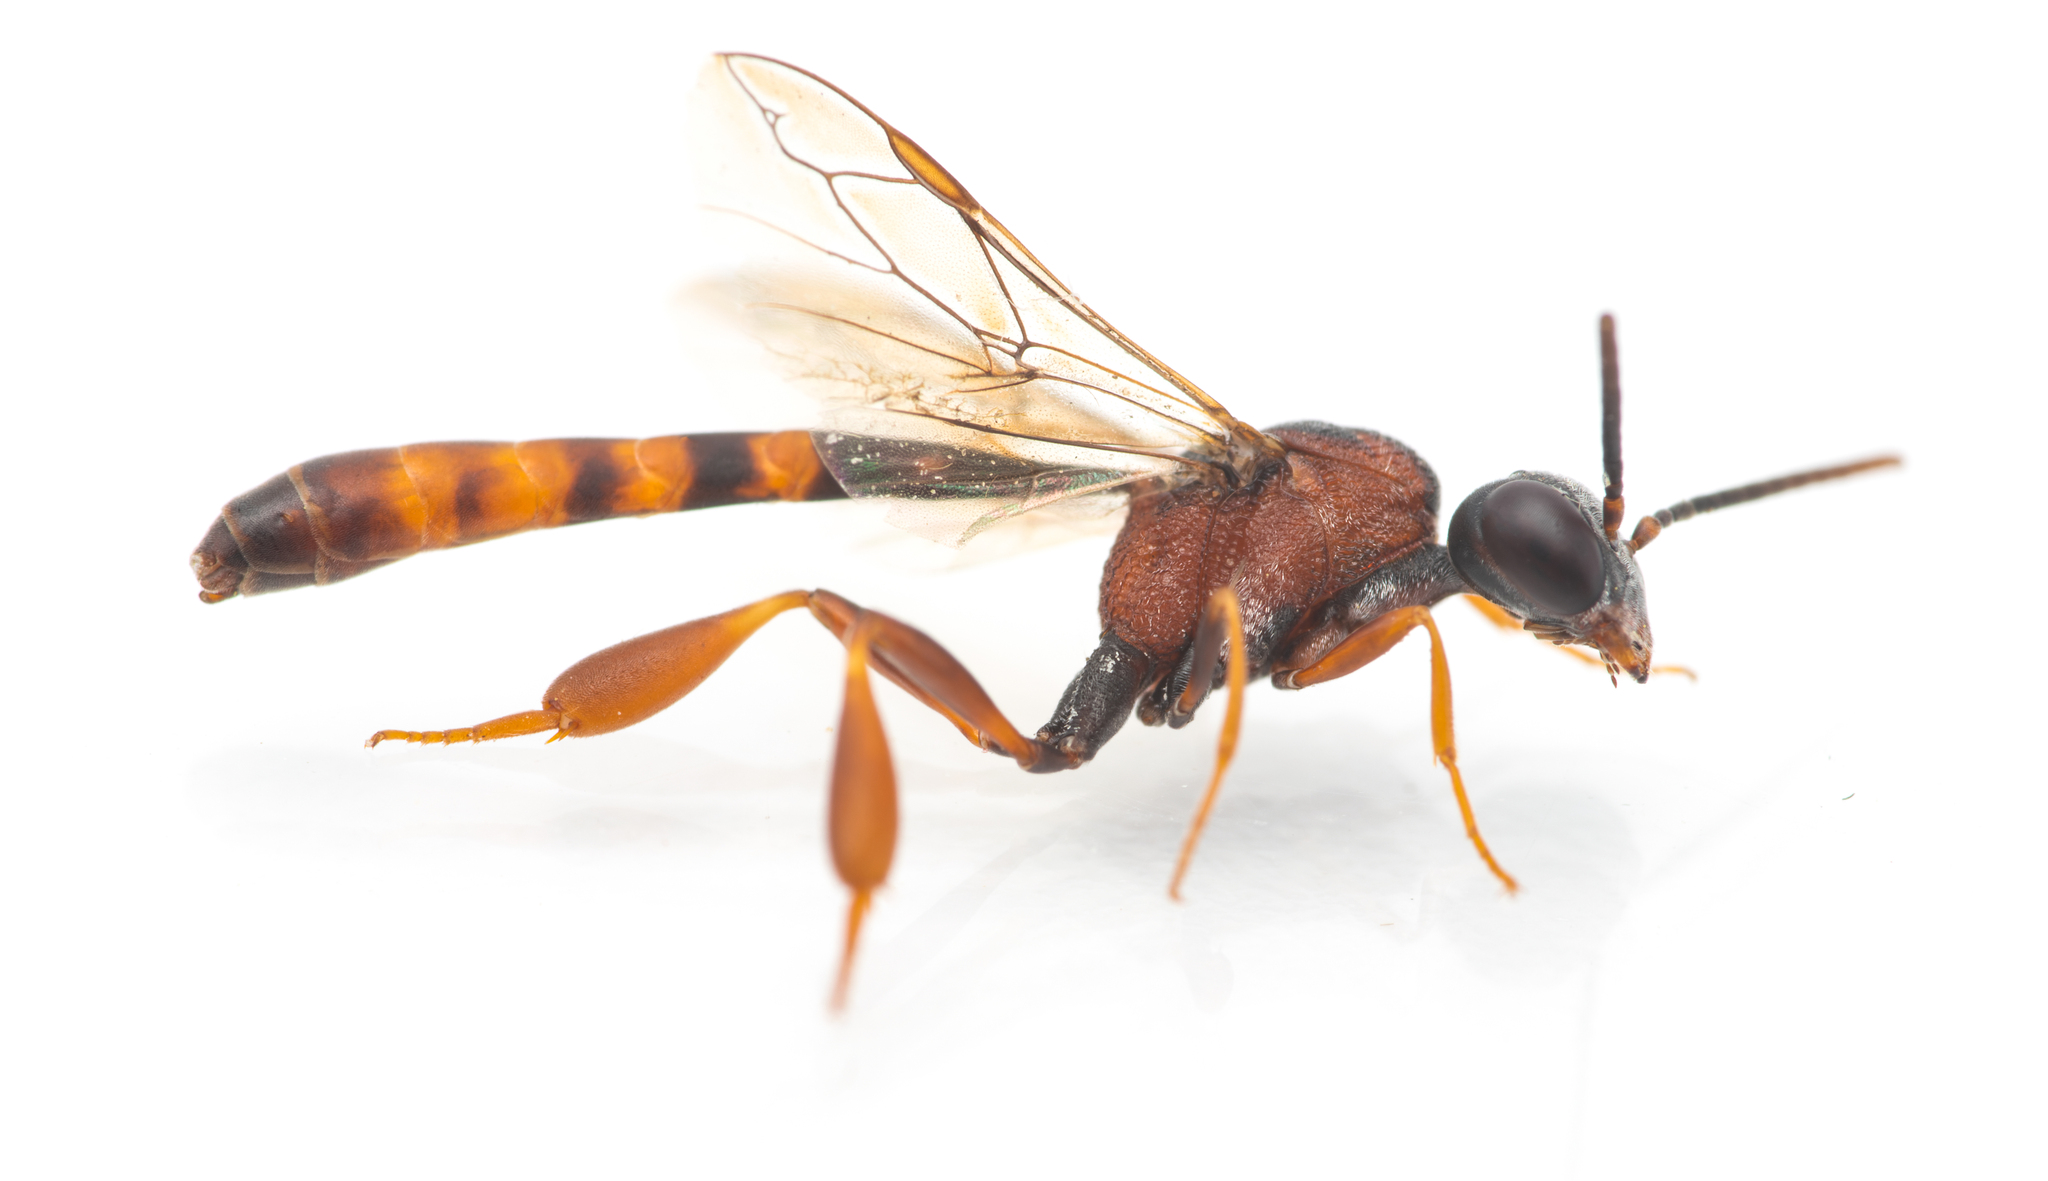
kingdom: Animalia
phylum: Arthropoda
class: Insecta
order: Hymenoptera
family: Gasteruptiidae
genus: Gasteruption
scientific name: Gasteruption hastator
